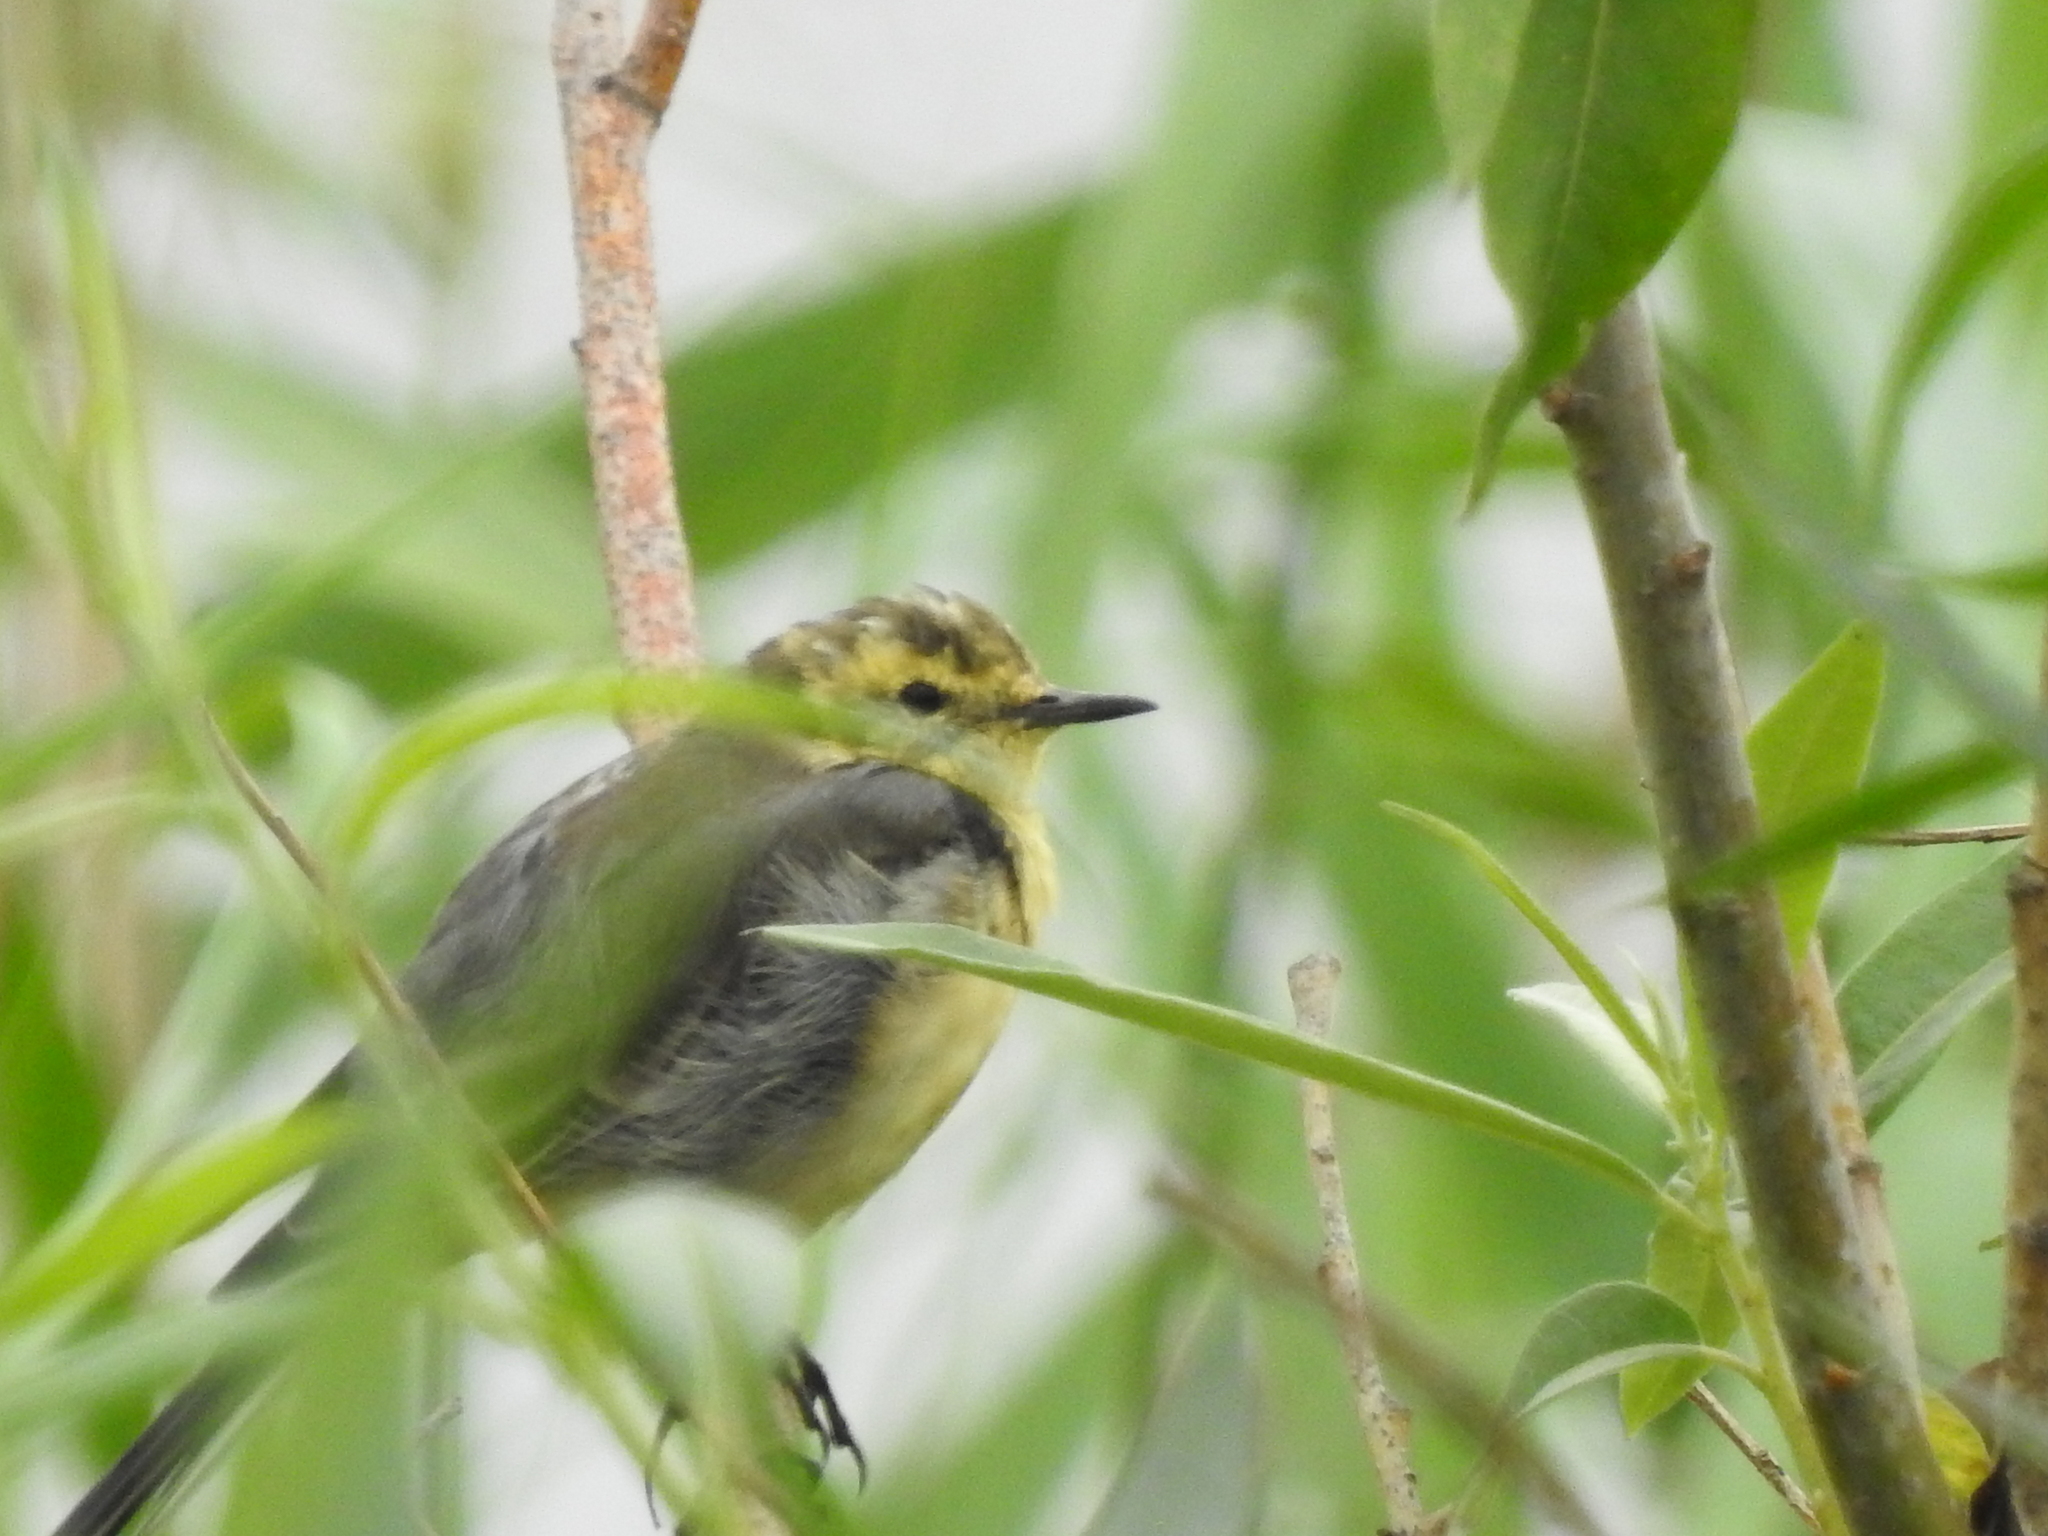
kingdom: Animalia
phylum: Chordata
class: Aves
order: Passeriformes
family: Motacillidae
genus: Motacilla
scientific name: Motacilla citreola
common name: Citrine wagtail
